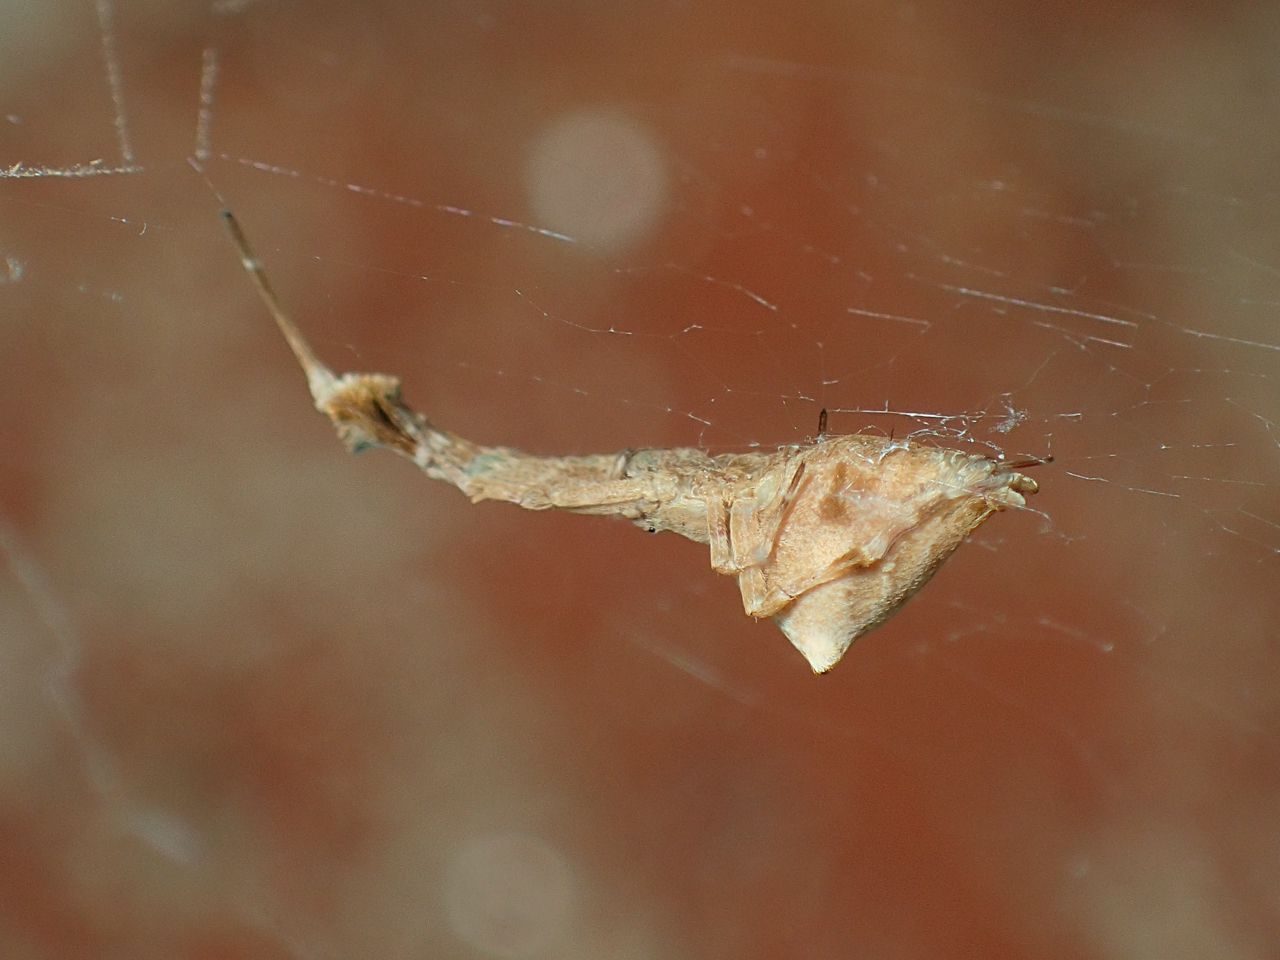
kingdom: Animalia
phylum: Arthropoda
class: Arachnida
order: Araneae
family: Uloboridae
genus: Uloborus
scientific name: Uloborus glomosus
